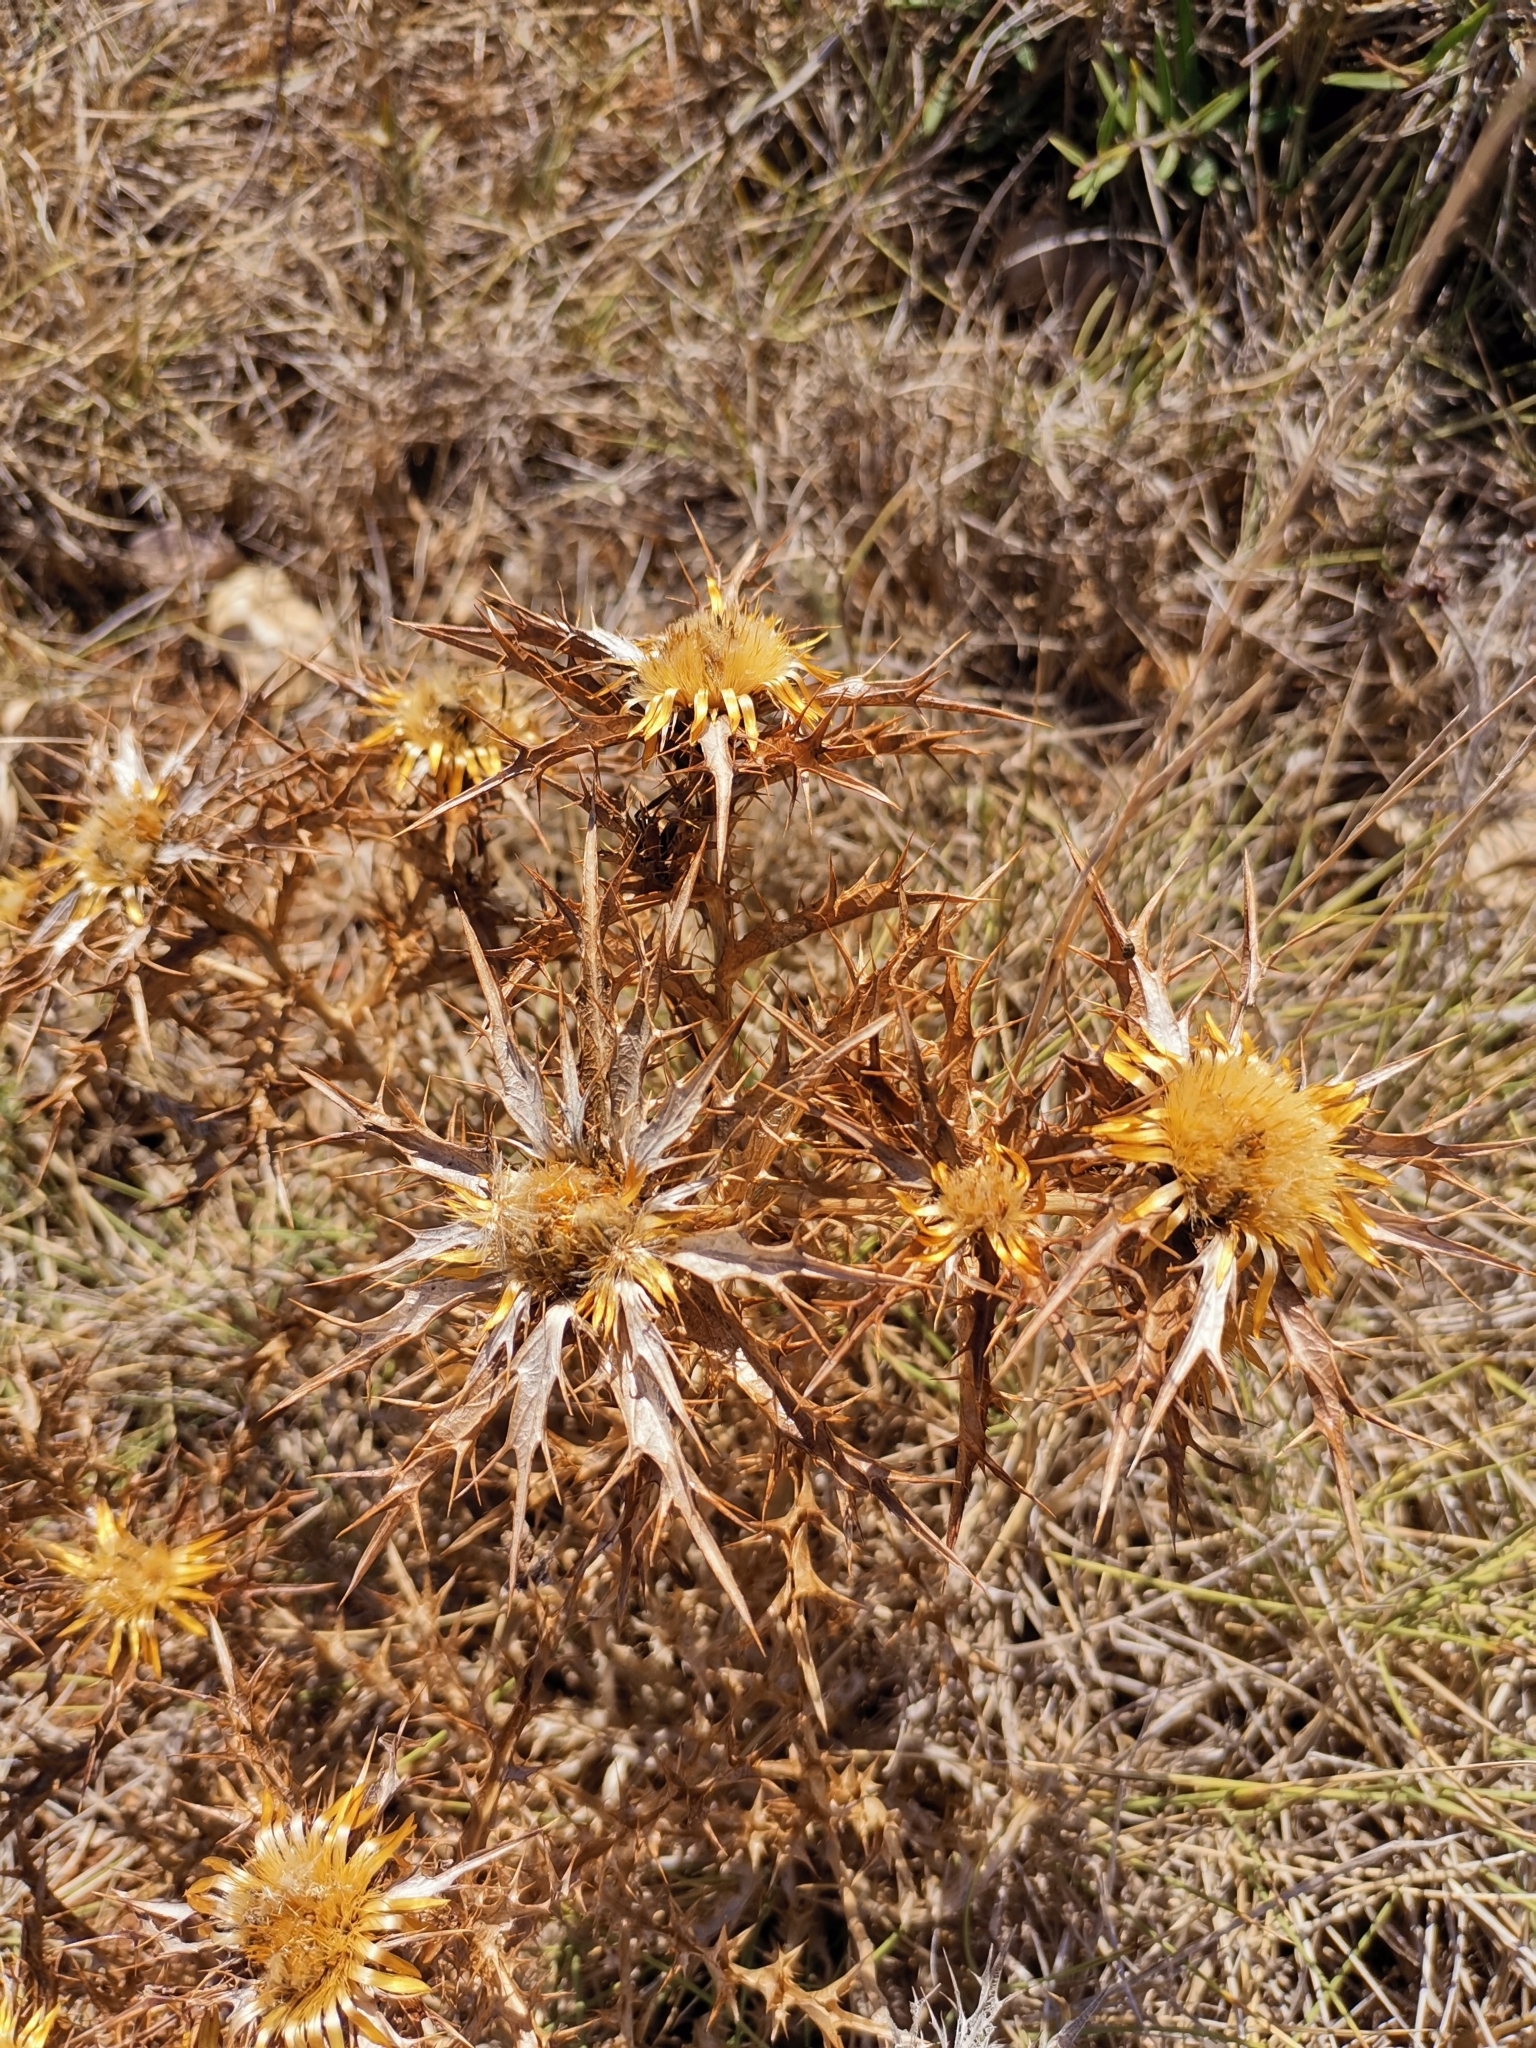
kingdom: Plantae
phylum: Tracheophyta
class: Magnoliopsida
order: Asterales
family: Asteraceae
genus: Carlina
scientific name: Carlina corymbosa
